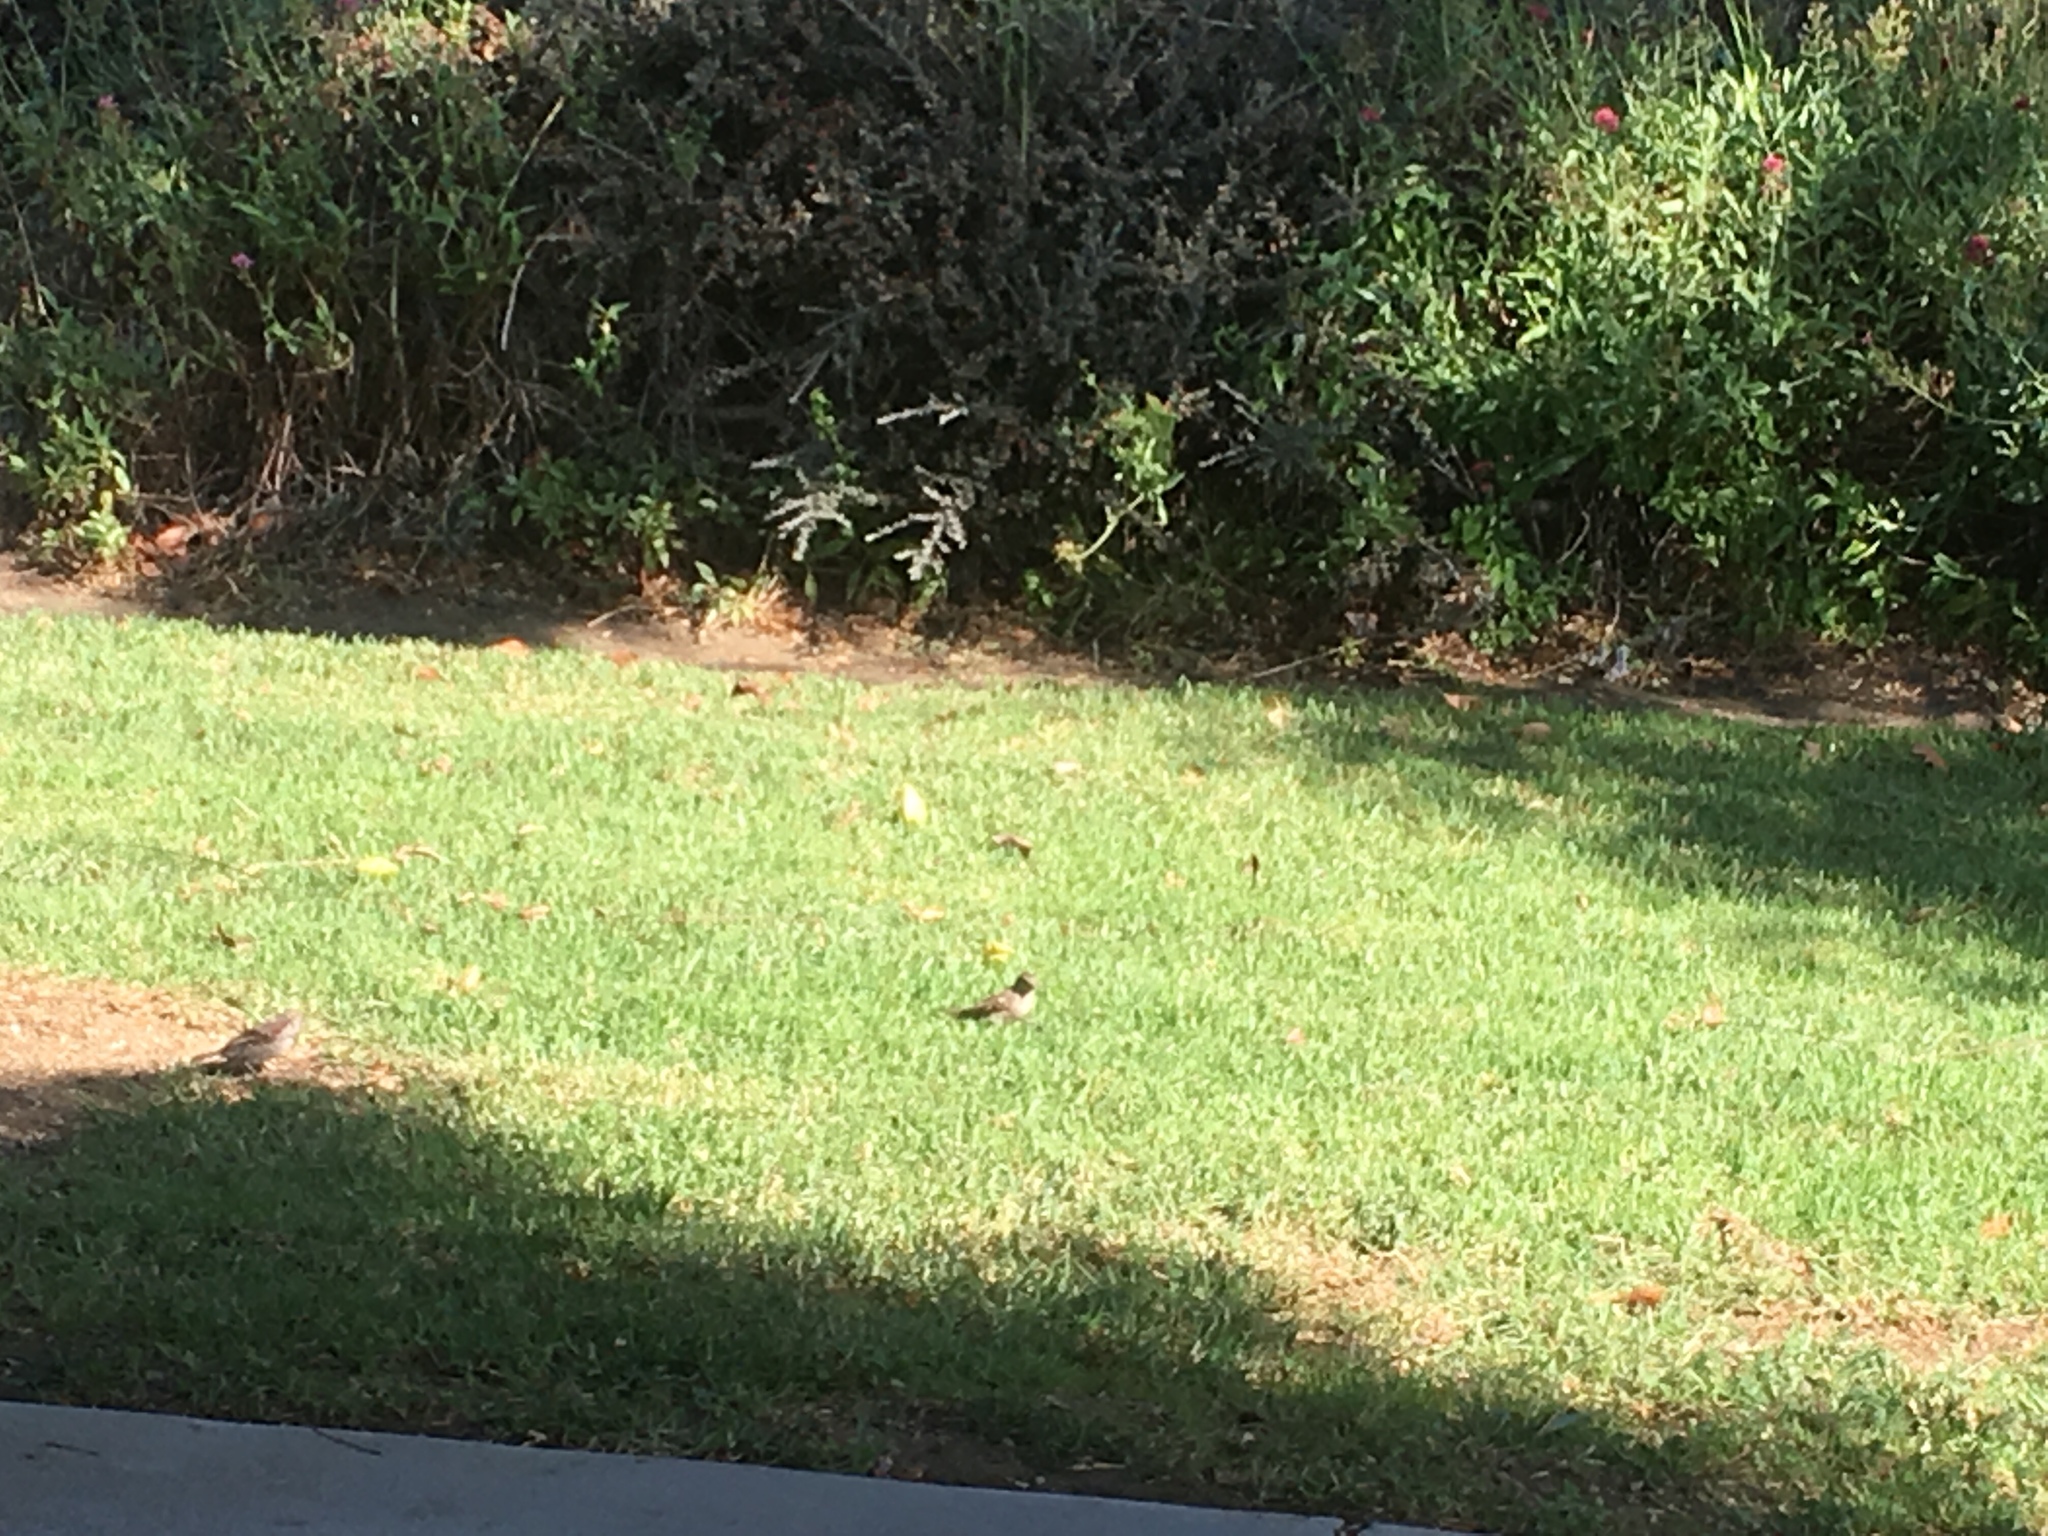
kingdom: Animalia
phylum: Chordata
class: Aves
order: Passeriformes
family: Passeridae
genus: Passer
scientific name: Passer domesticus
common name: House sparrow
